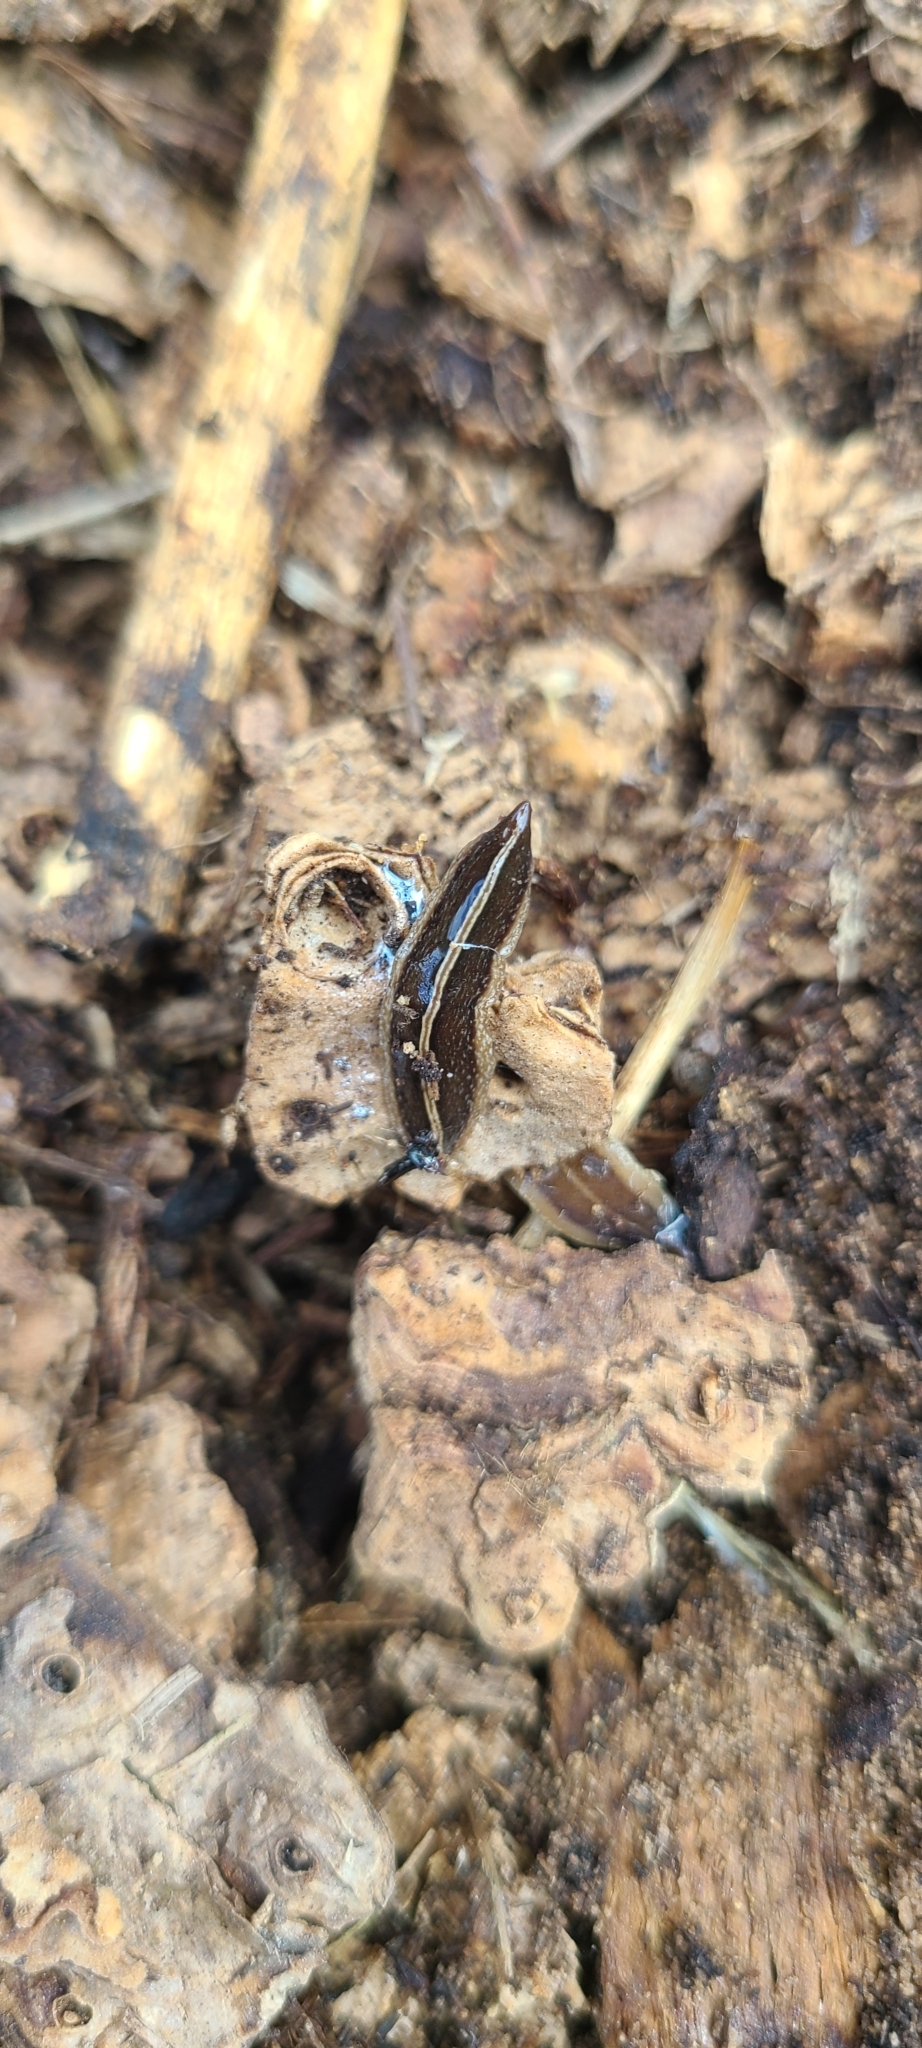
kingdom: Animalia
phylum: Platyhelminthes
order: Tricladida
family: Geoplanidae
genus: Newzealandia
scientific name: Newzealandia graffii
